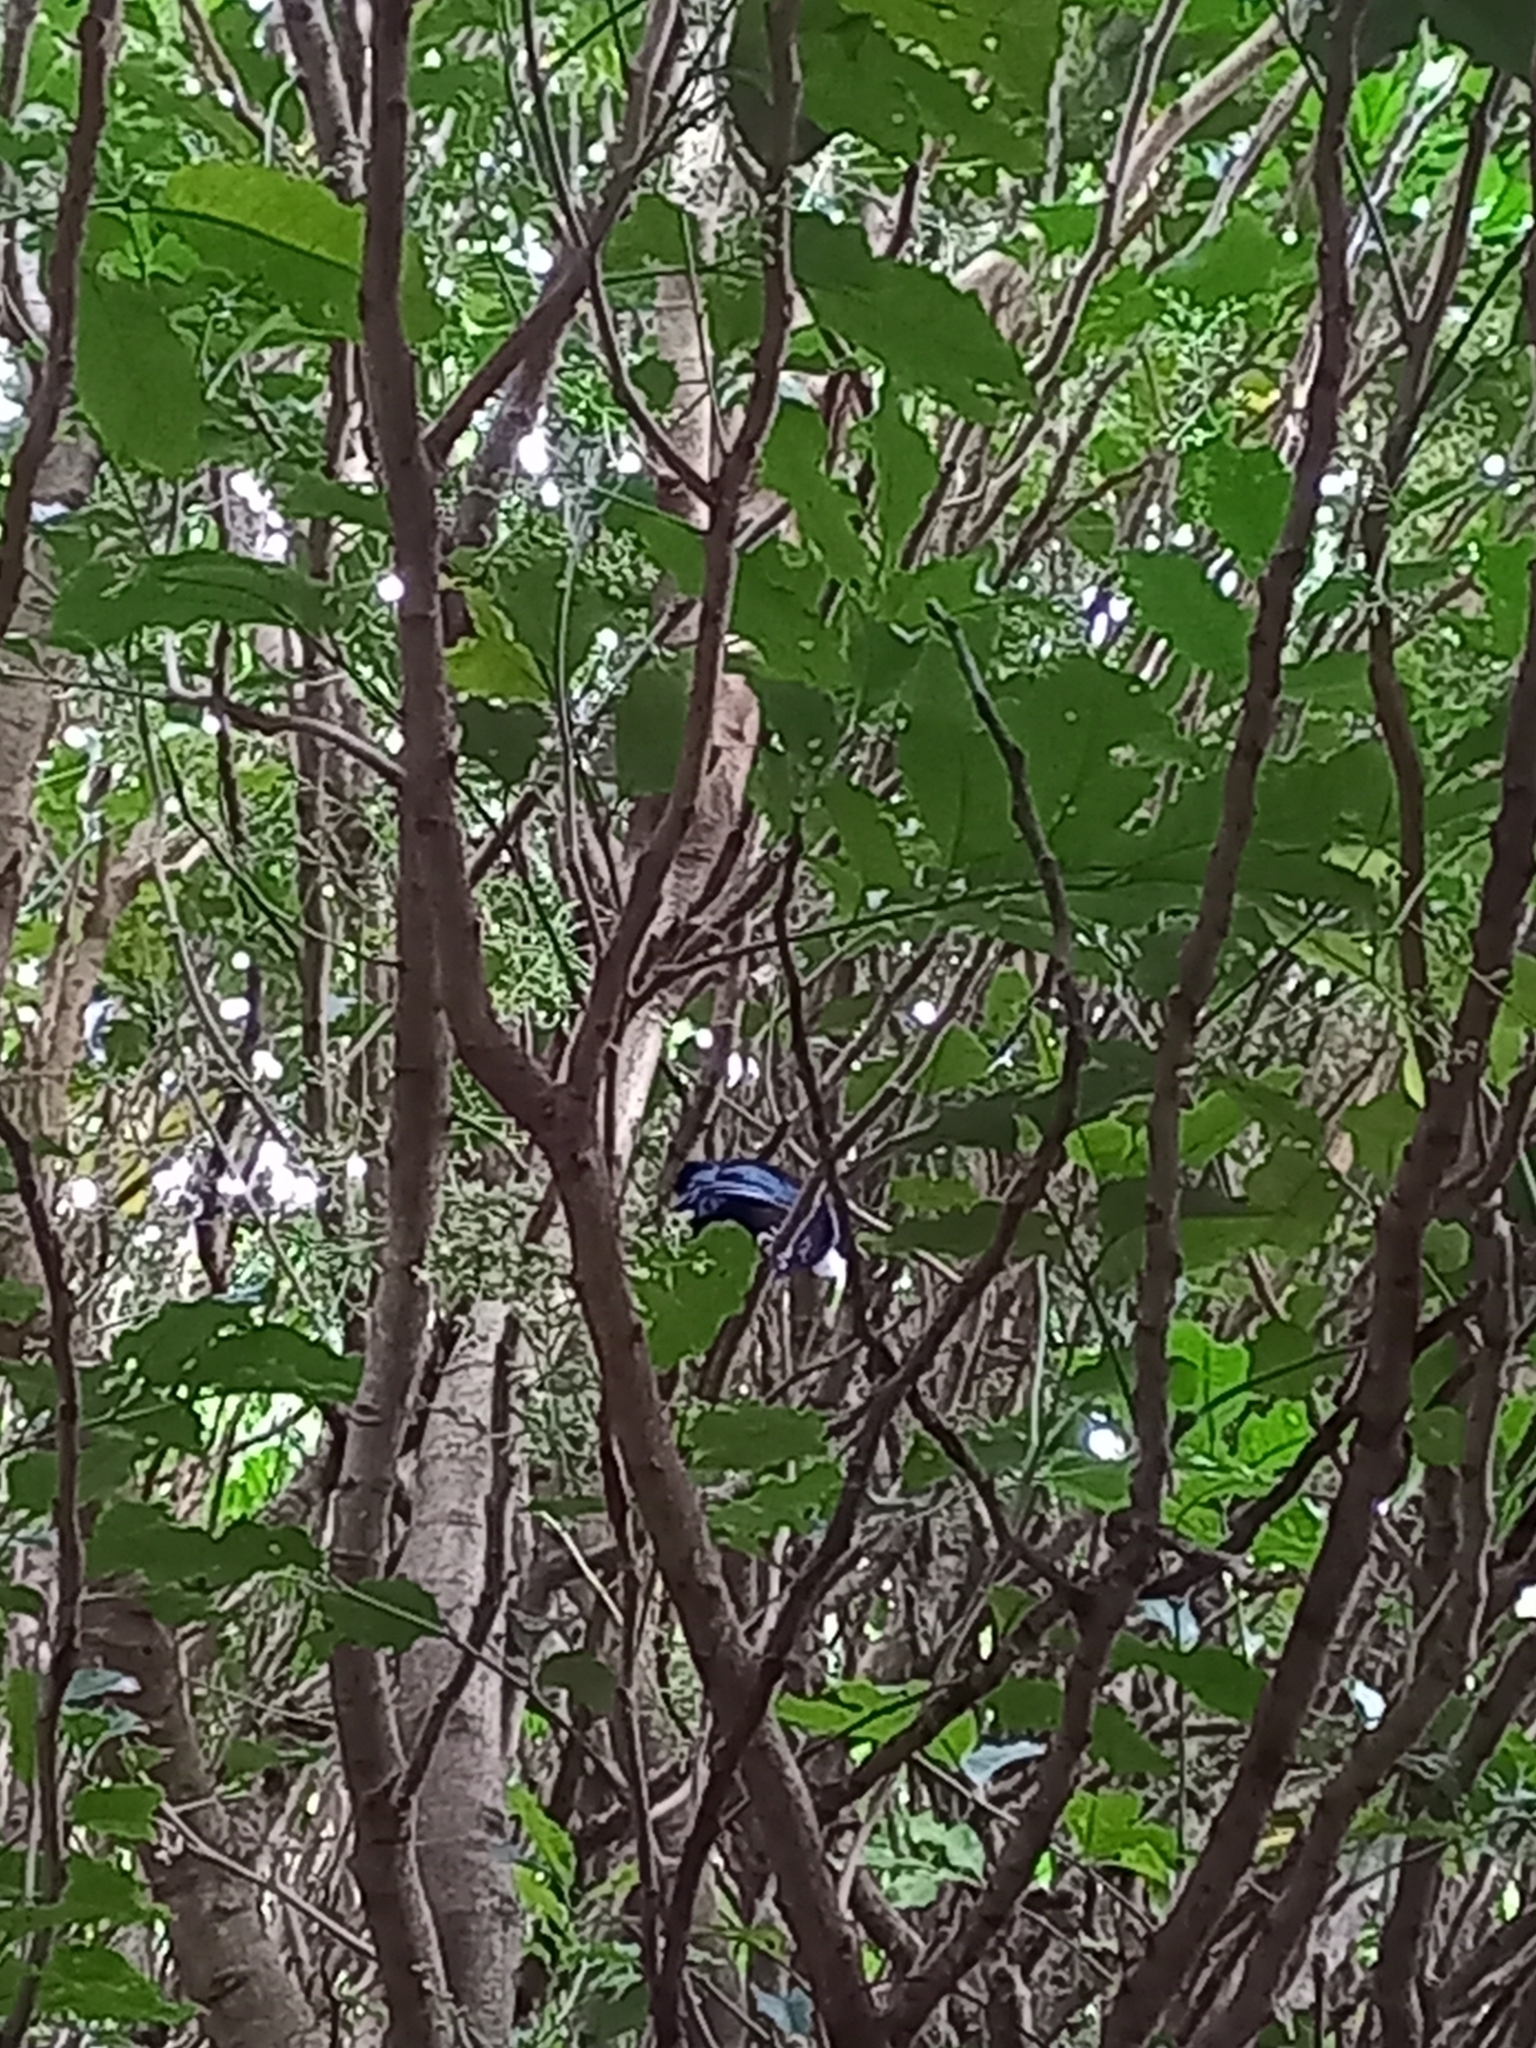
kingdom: Animalia
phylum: Chordata
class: Aves
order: Passeriformes
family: Meliphagidae
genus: Prosthemadera
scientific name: Prosthemadera novaeseelandiae
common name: Tui
